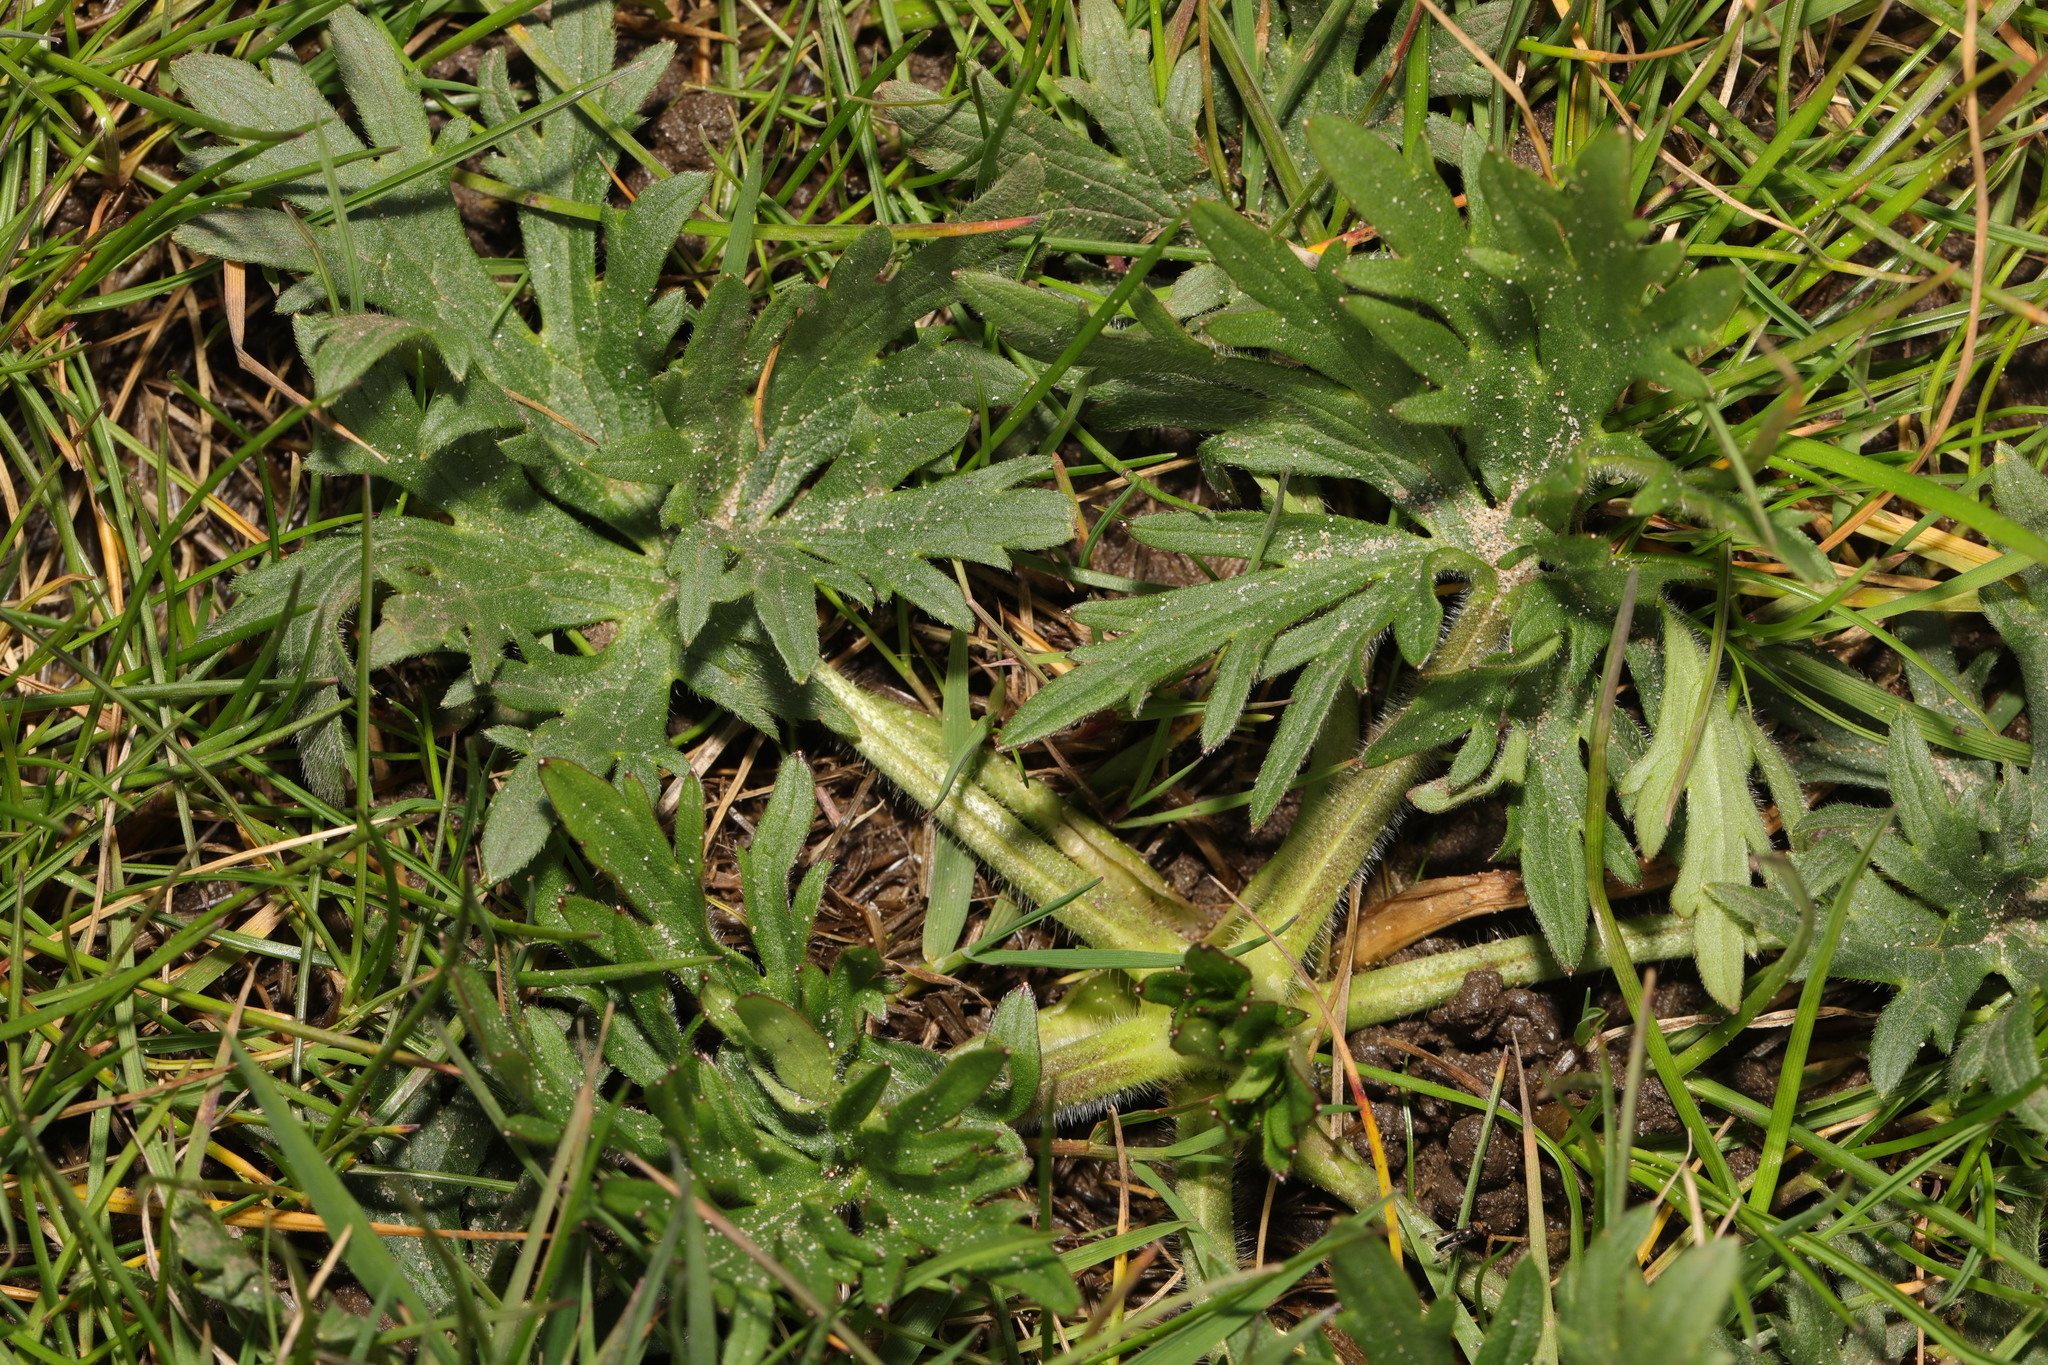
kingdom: Plantae
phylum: Tracheophyta
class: Magnoliopsida
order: Ranunculales
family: Ranunculaceae
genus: Ranunculus
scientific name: Ranunculus acris
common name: Meadow buttercup
